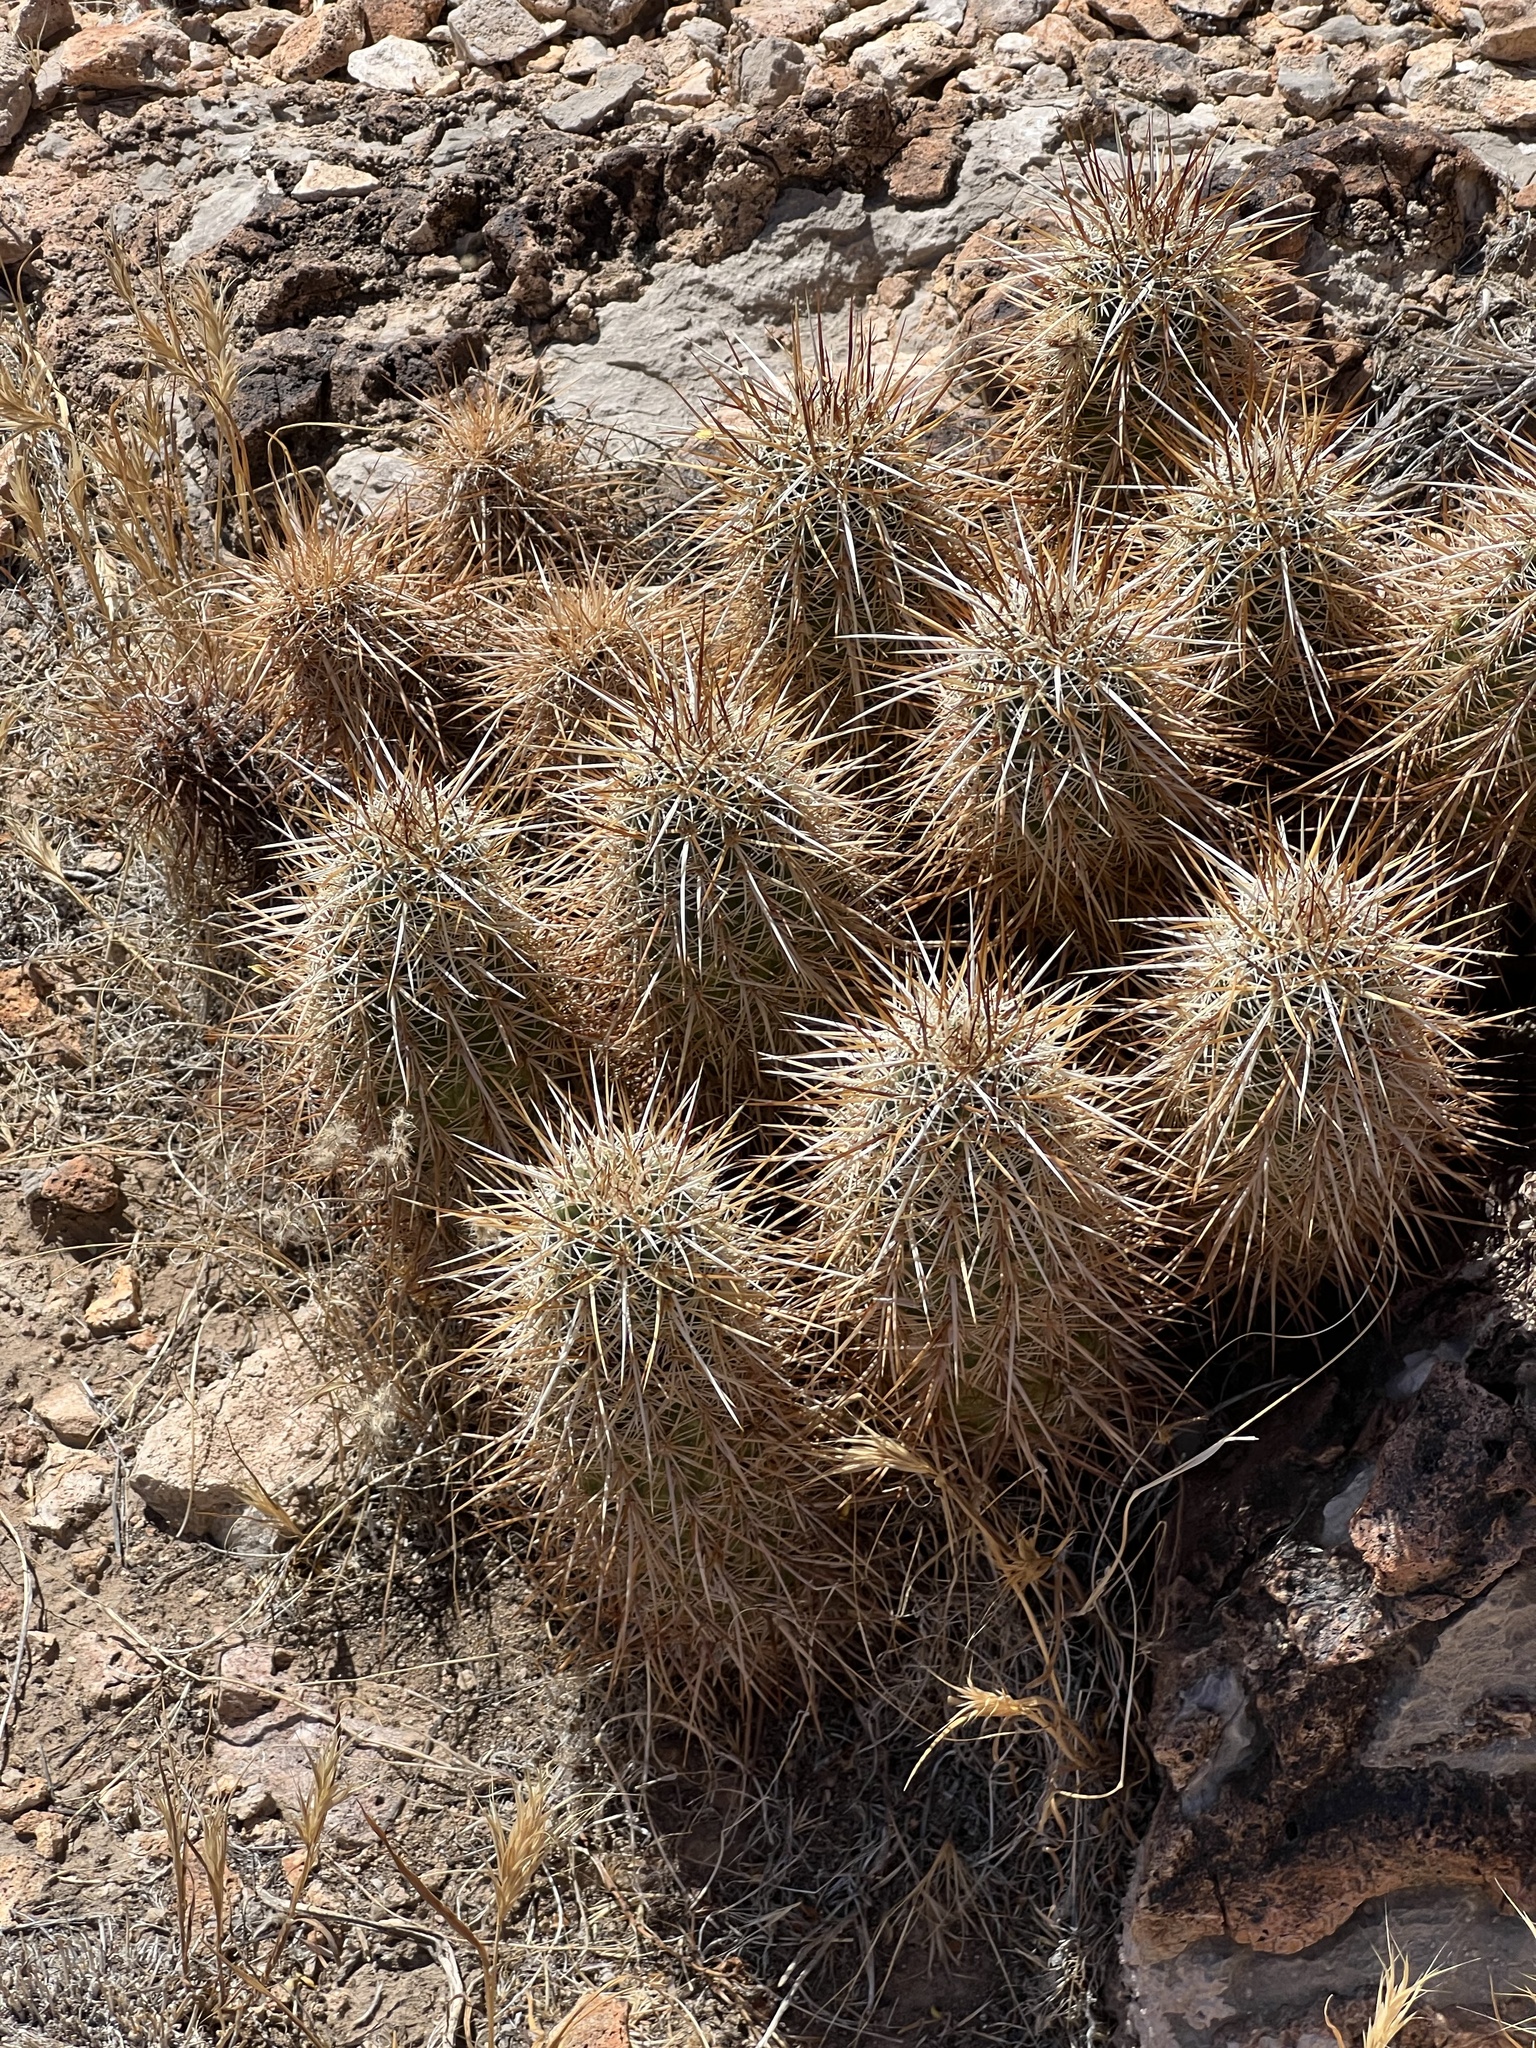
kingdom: Plantae
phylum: Tracheophyta
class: Magnoliopsida
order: Caryophyllales
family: Cactaceae
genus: Echinocereus
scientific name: Echinocereus engelmannii
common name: Engelmann's hedgehog cactus
